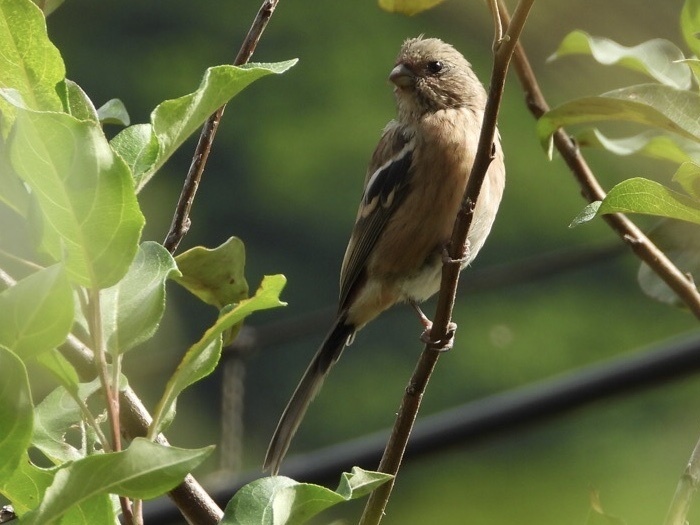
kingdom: Animalia
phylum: Chordata
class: Aves
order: Passeriformes
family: Fringillidae
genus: Carpodacus
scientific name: Carpodacus sibiricus
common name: Long-tailed rosefinch
